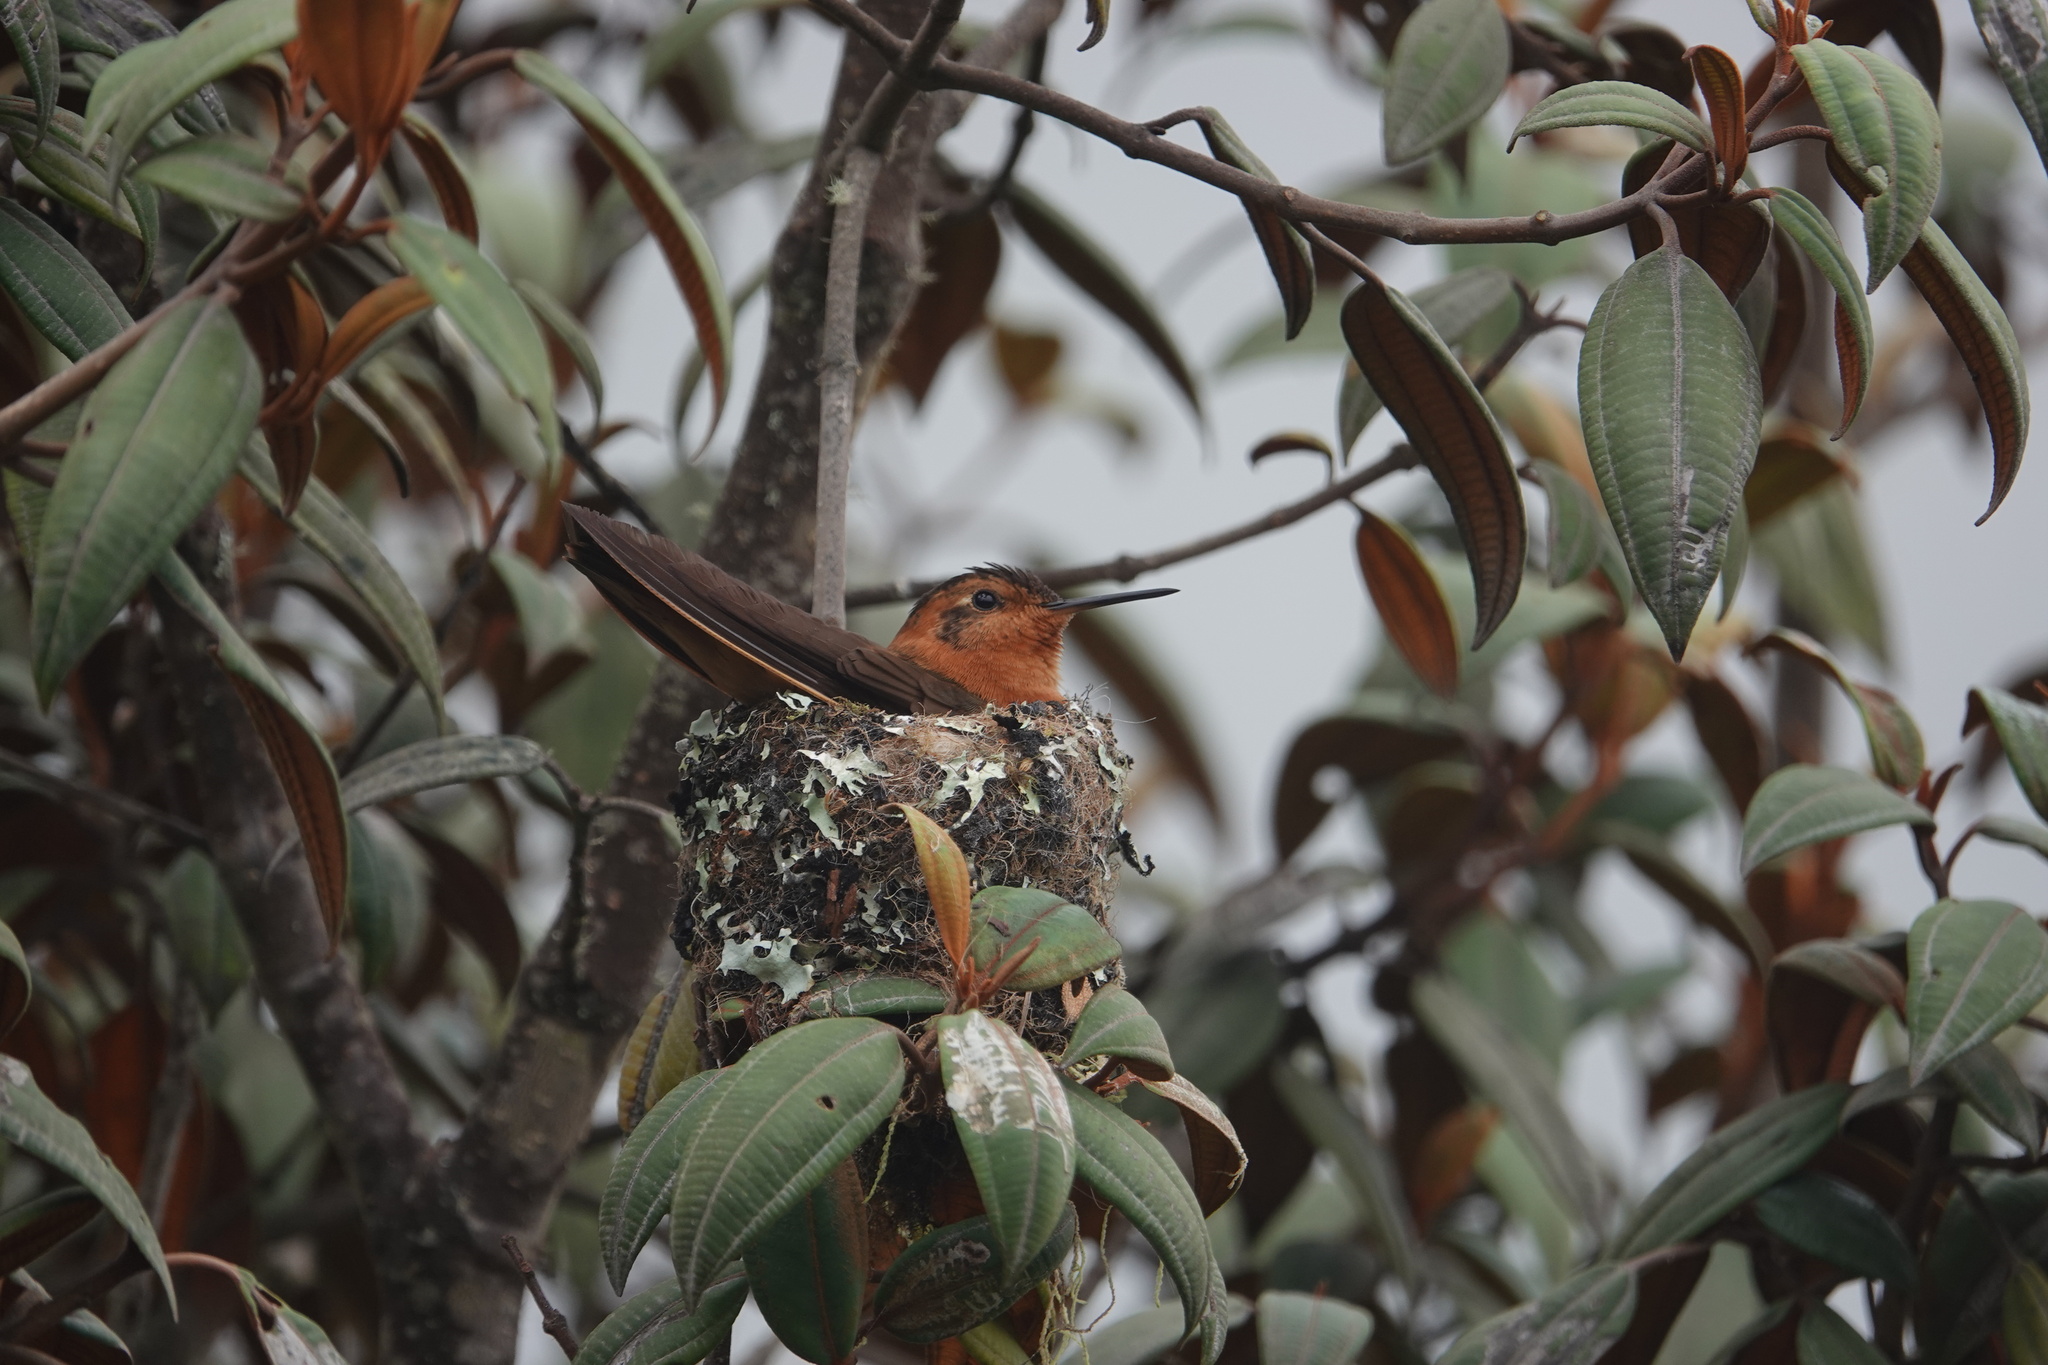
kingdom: Animalia
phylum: Chordata
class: Aves
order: Apodiformes
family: Trochilidae
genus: Aglaeactis
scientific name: Aglaeactis cupripennis
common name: Shining sunbeam
